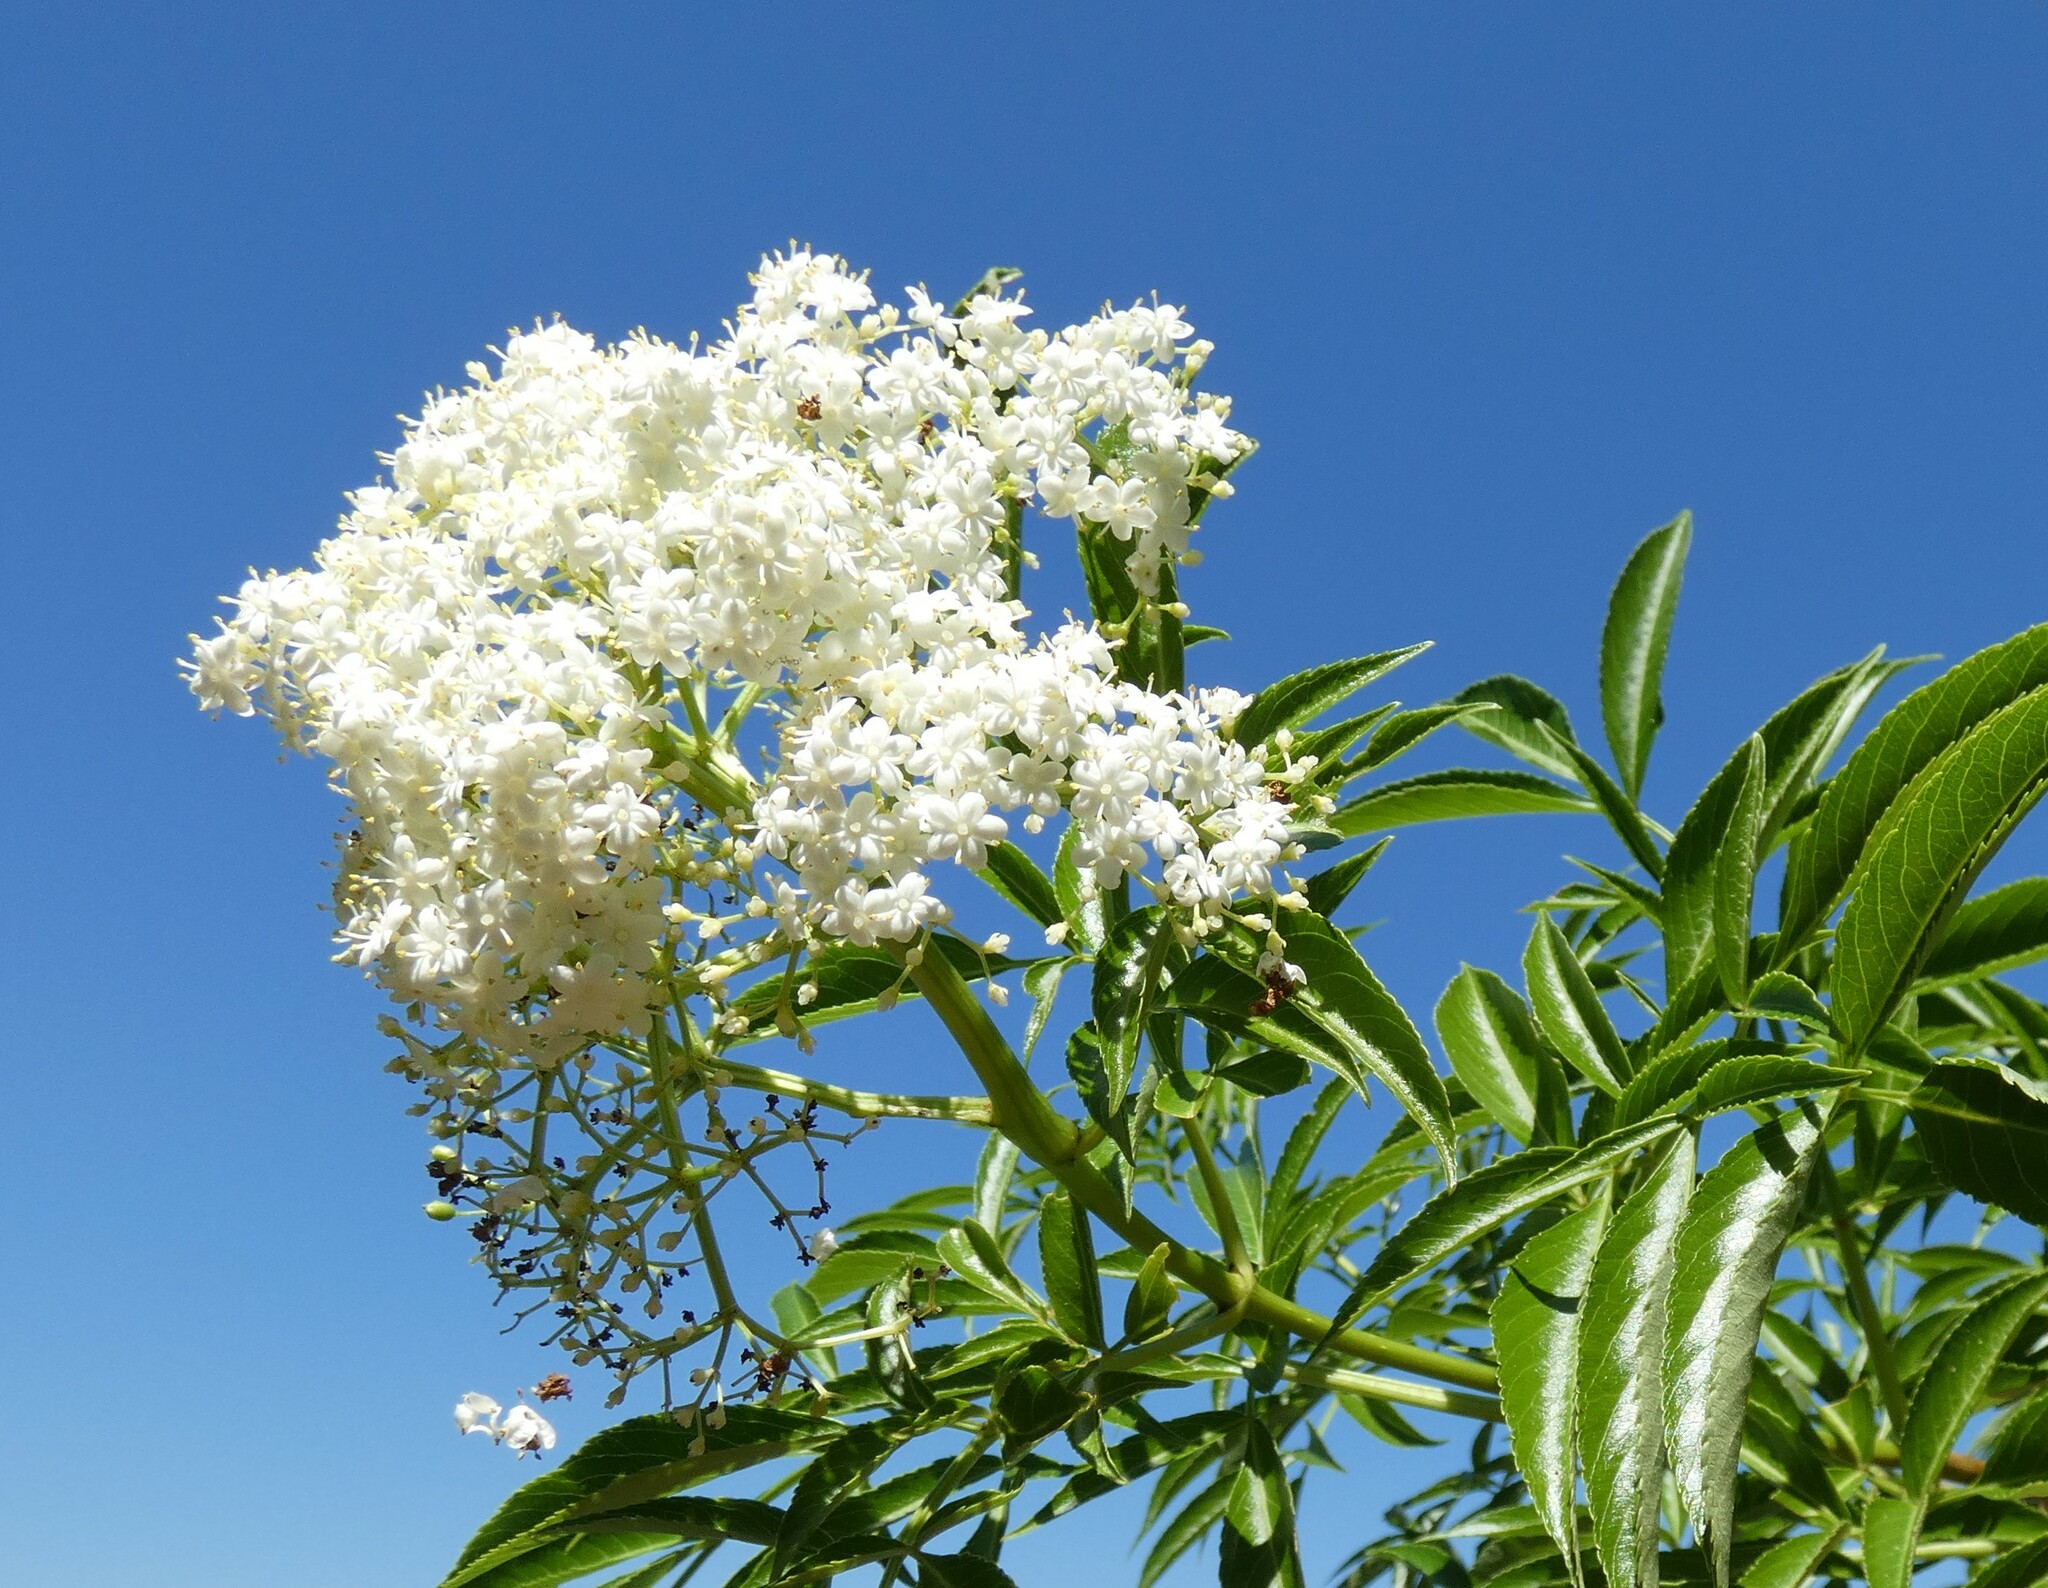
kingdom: Plantae
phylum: Tracheophyta
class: Magnoliopsida
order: Dipsacales
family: Viburnaceae
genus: Sambucus
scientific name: Sambucus canadensis
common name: American elder
